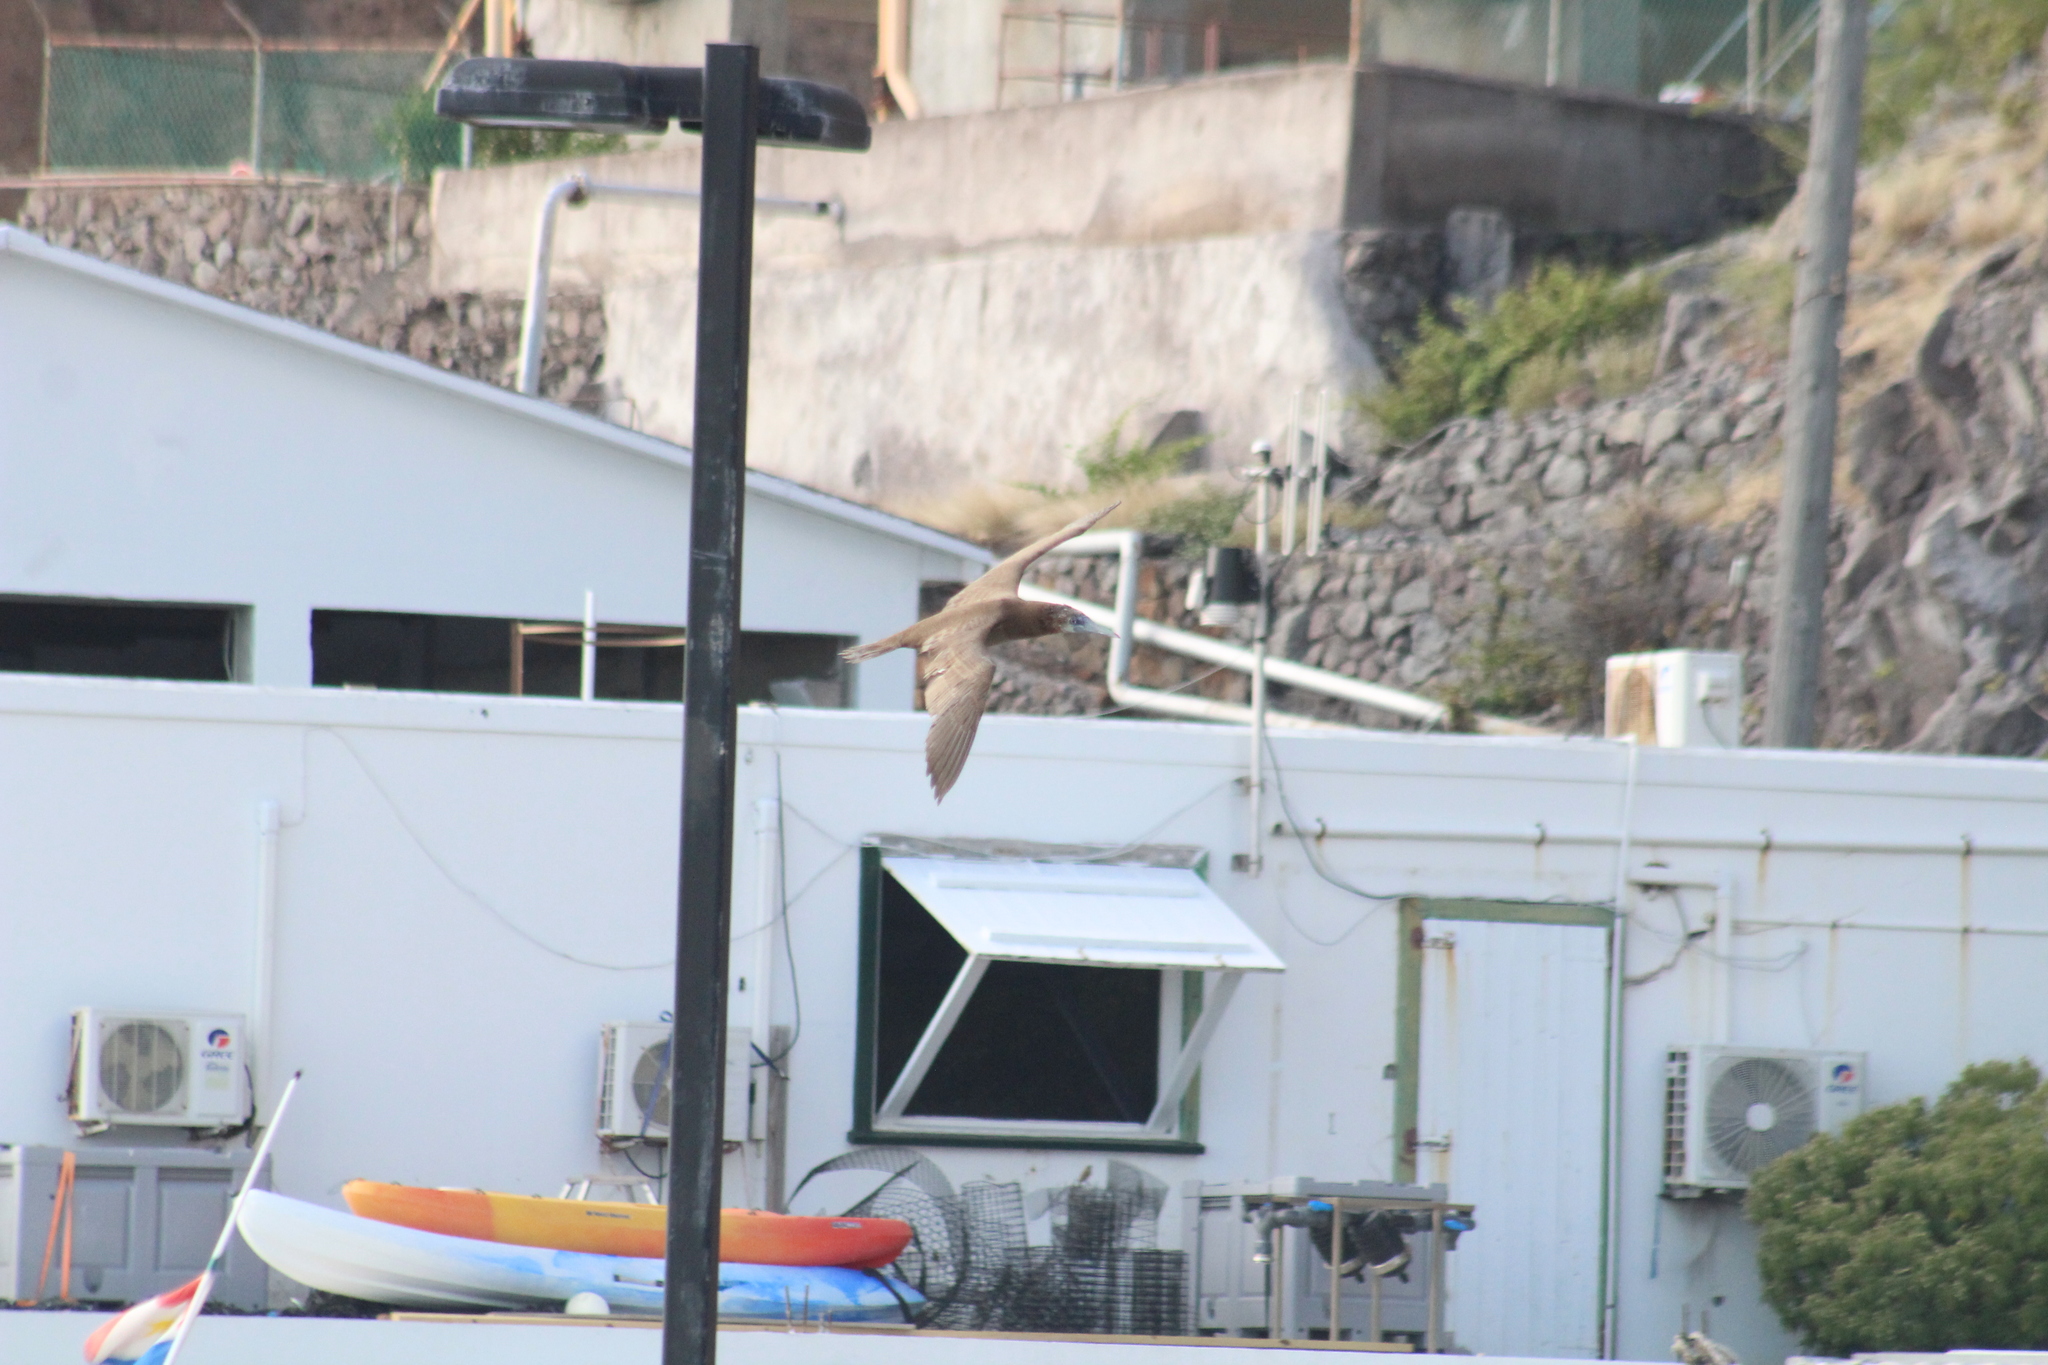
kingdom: Animalia
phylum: Chordata
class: Aves
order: Suliformes
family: Sulidae
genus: Sula
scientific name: Sula leucogaster
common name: Brown booby
